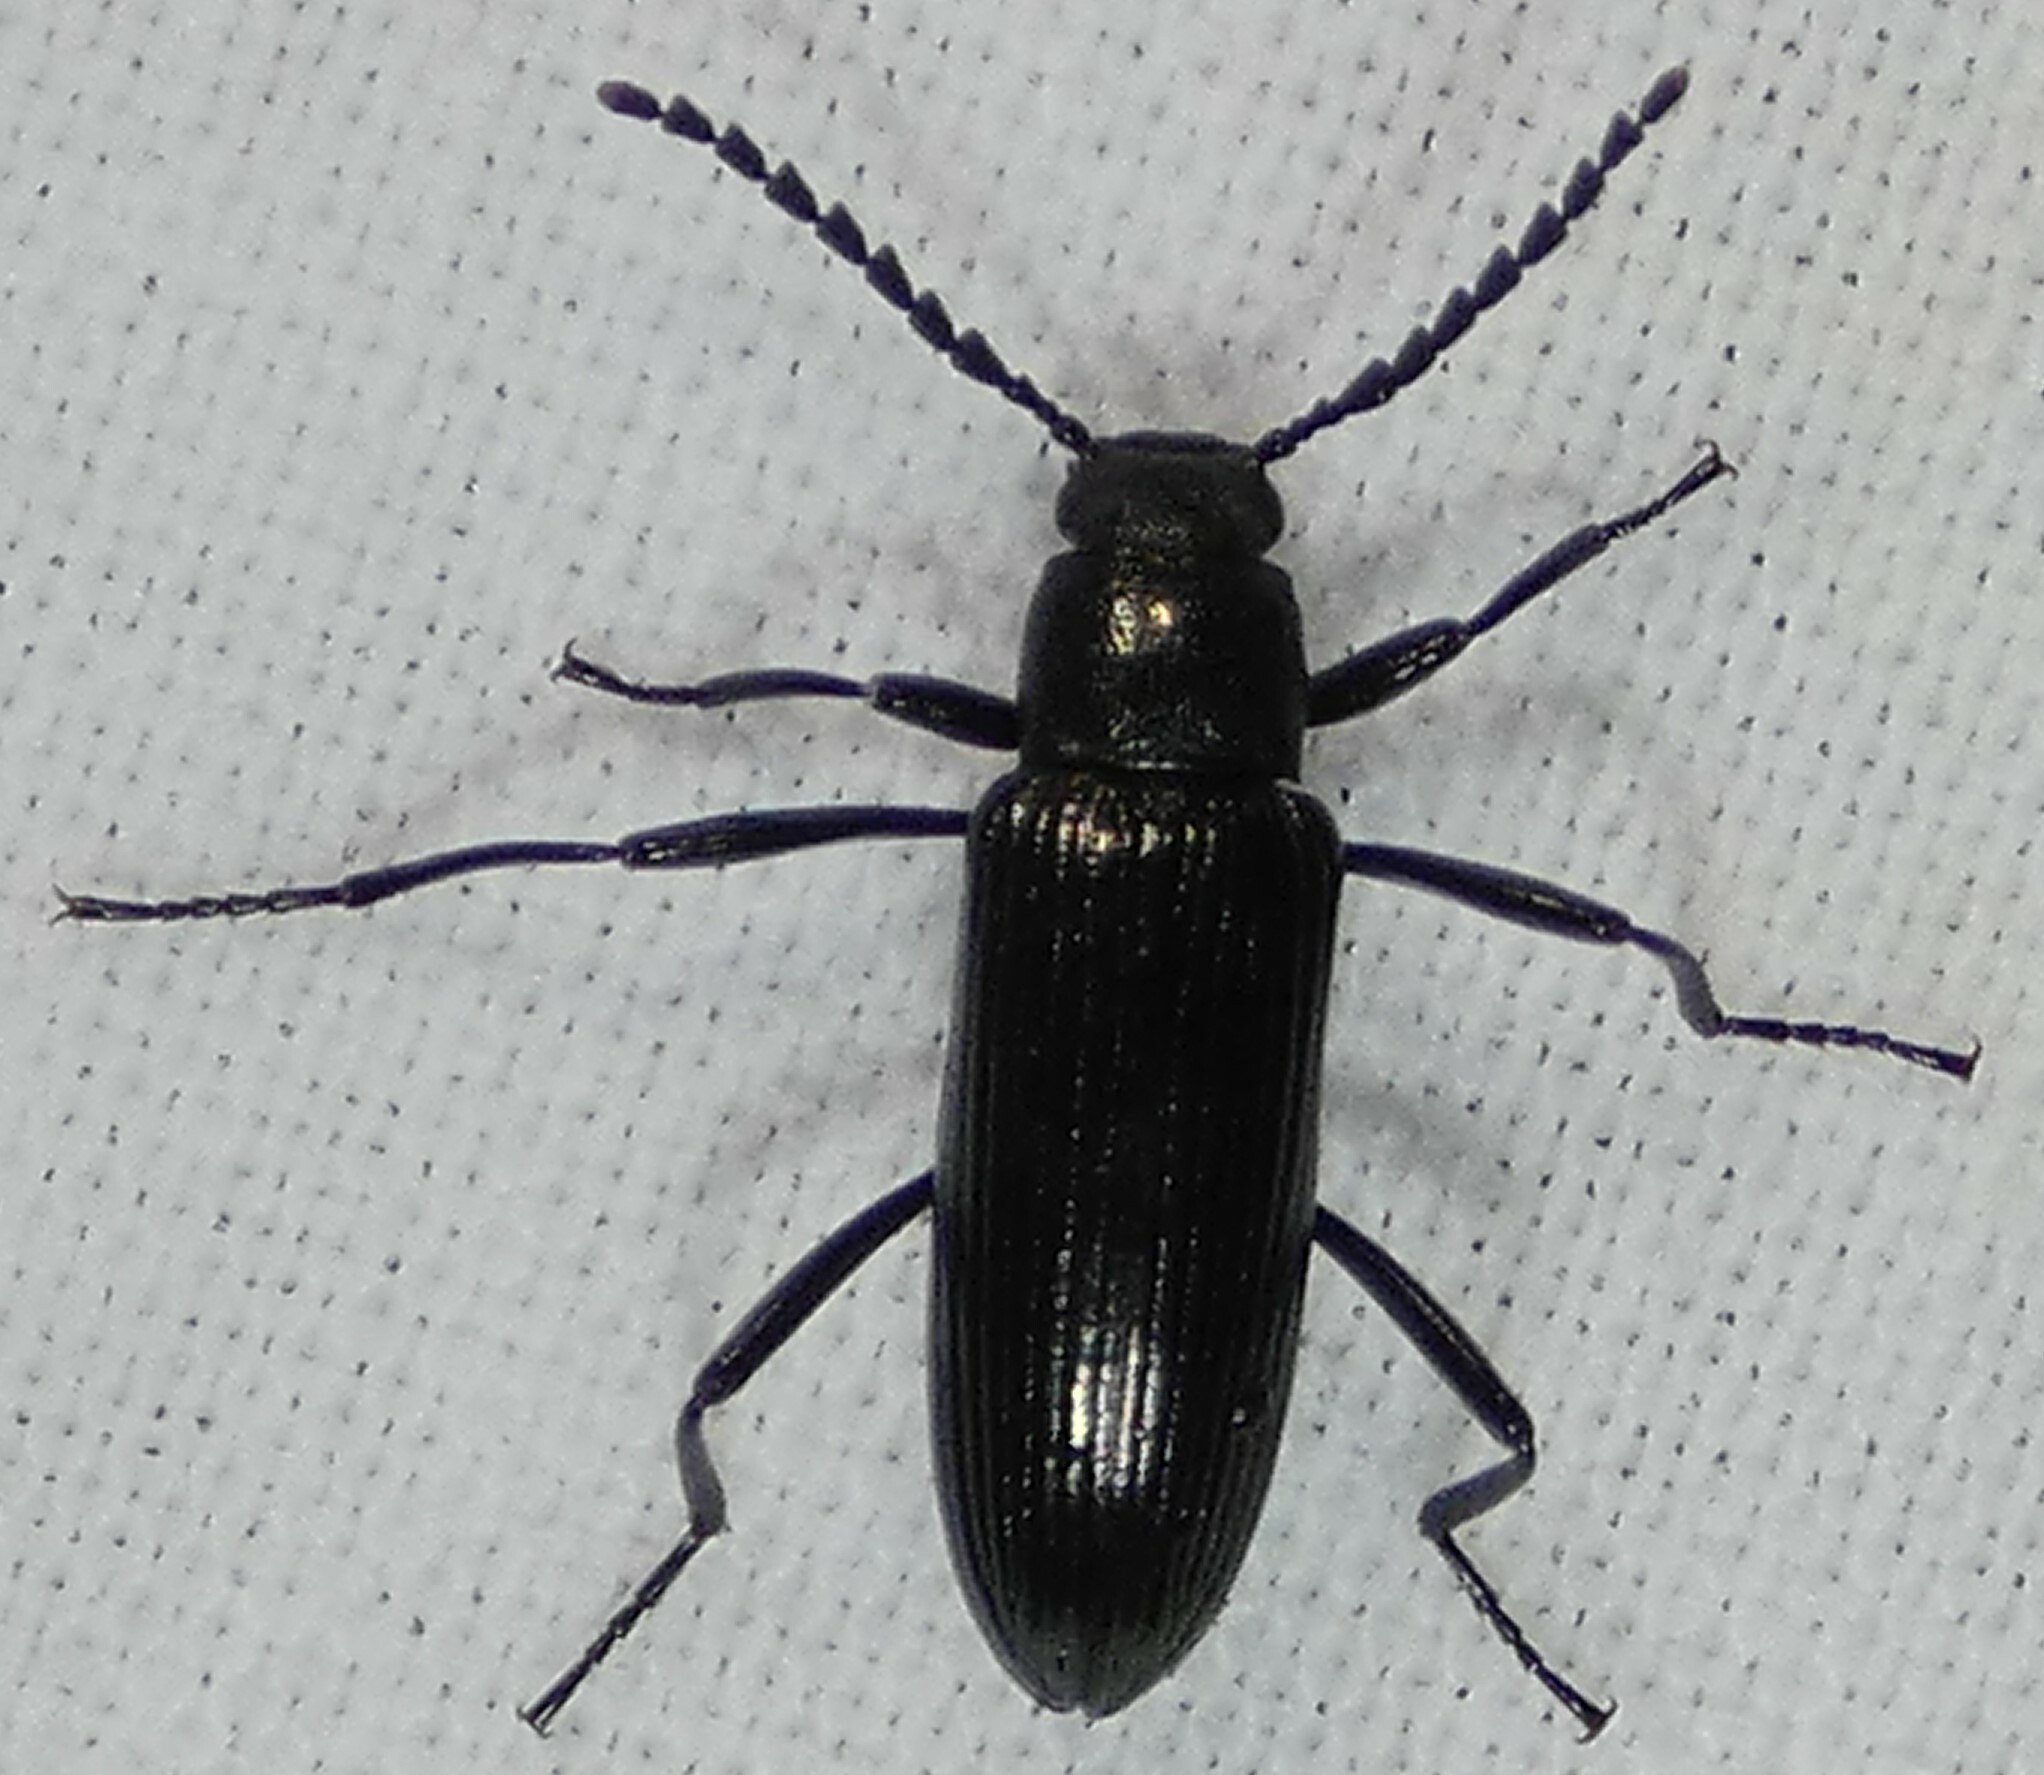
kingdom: Animalia
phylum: Arthropoda
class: Insecta
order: Coleoptera
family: Tenebrionidae
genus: Oploptera
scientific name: Oploptera
